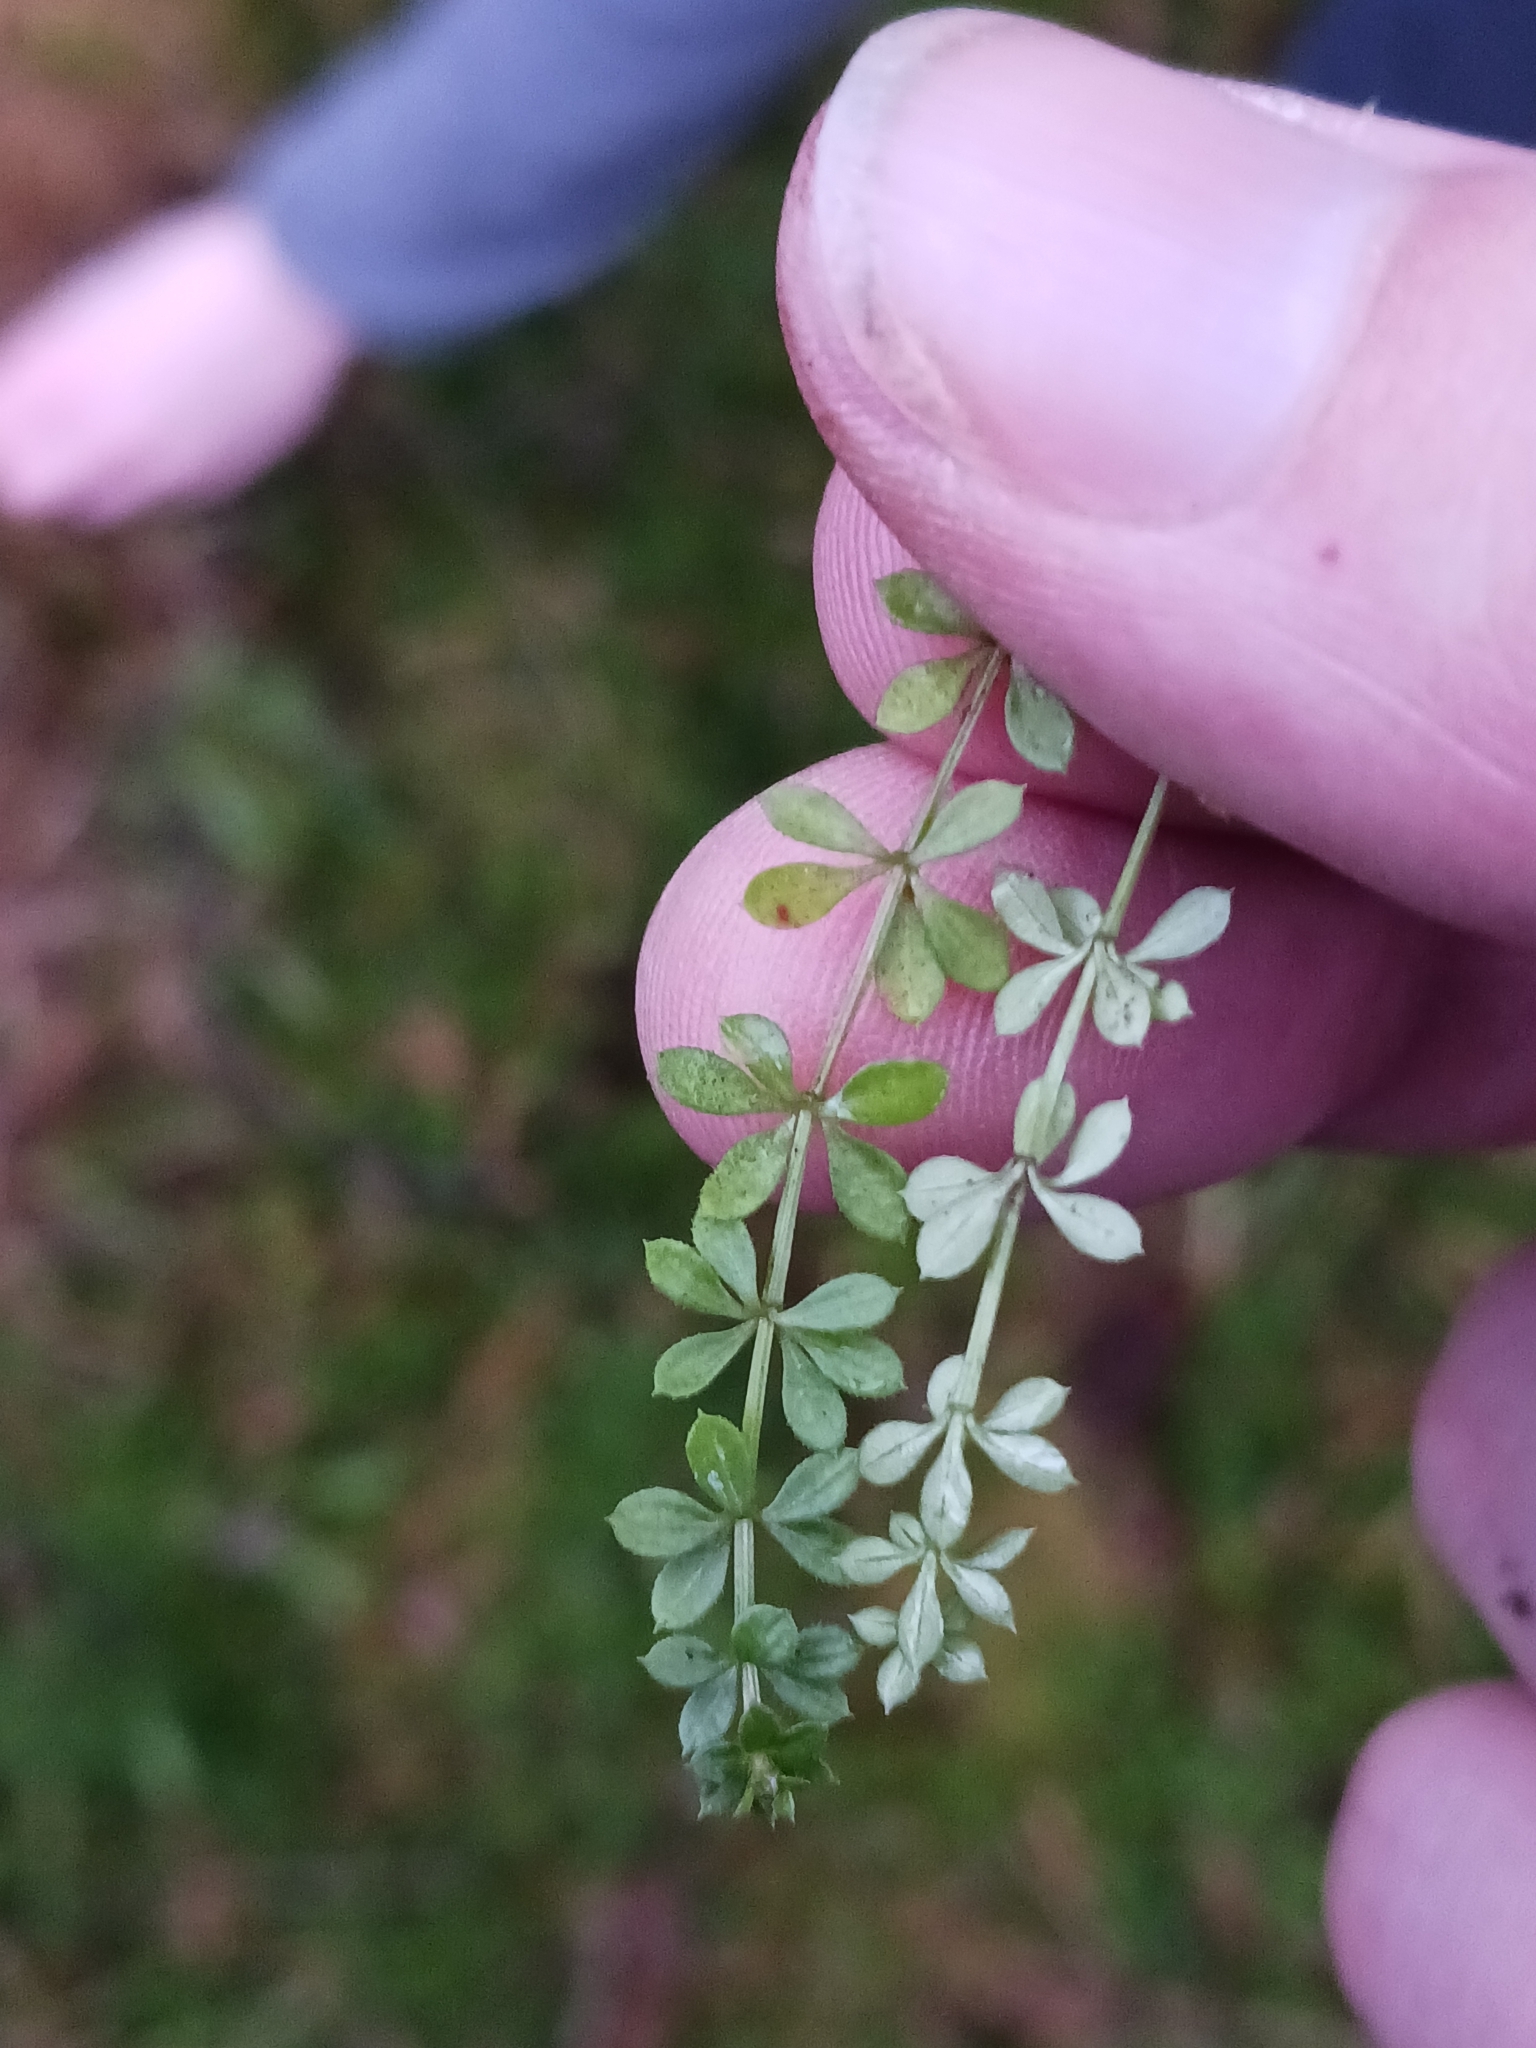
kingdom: Plantae
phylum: Tracheophyta
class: Magnoliopsida
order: Gentianales
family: Rubiaceae
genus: Galium
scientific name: Galium saxatile
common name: Heath bedstraw
